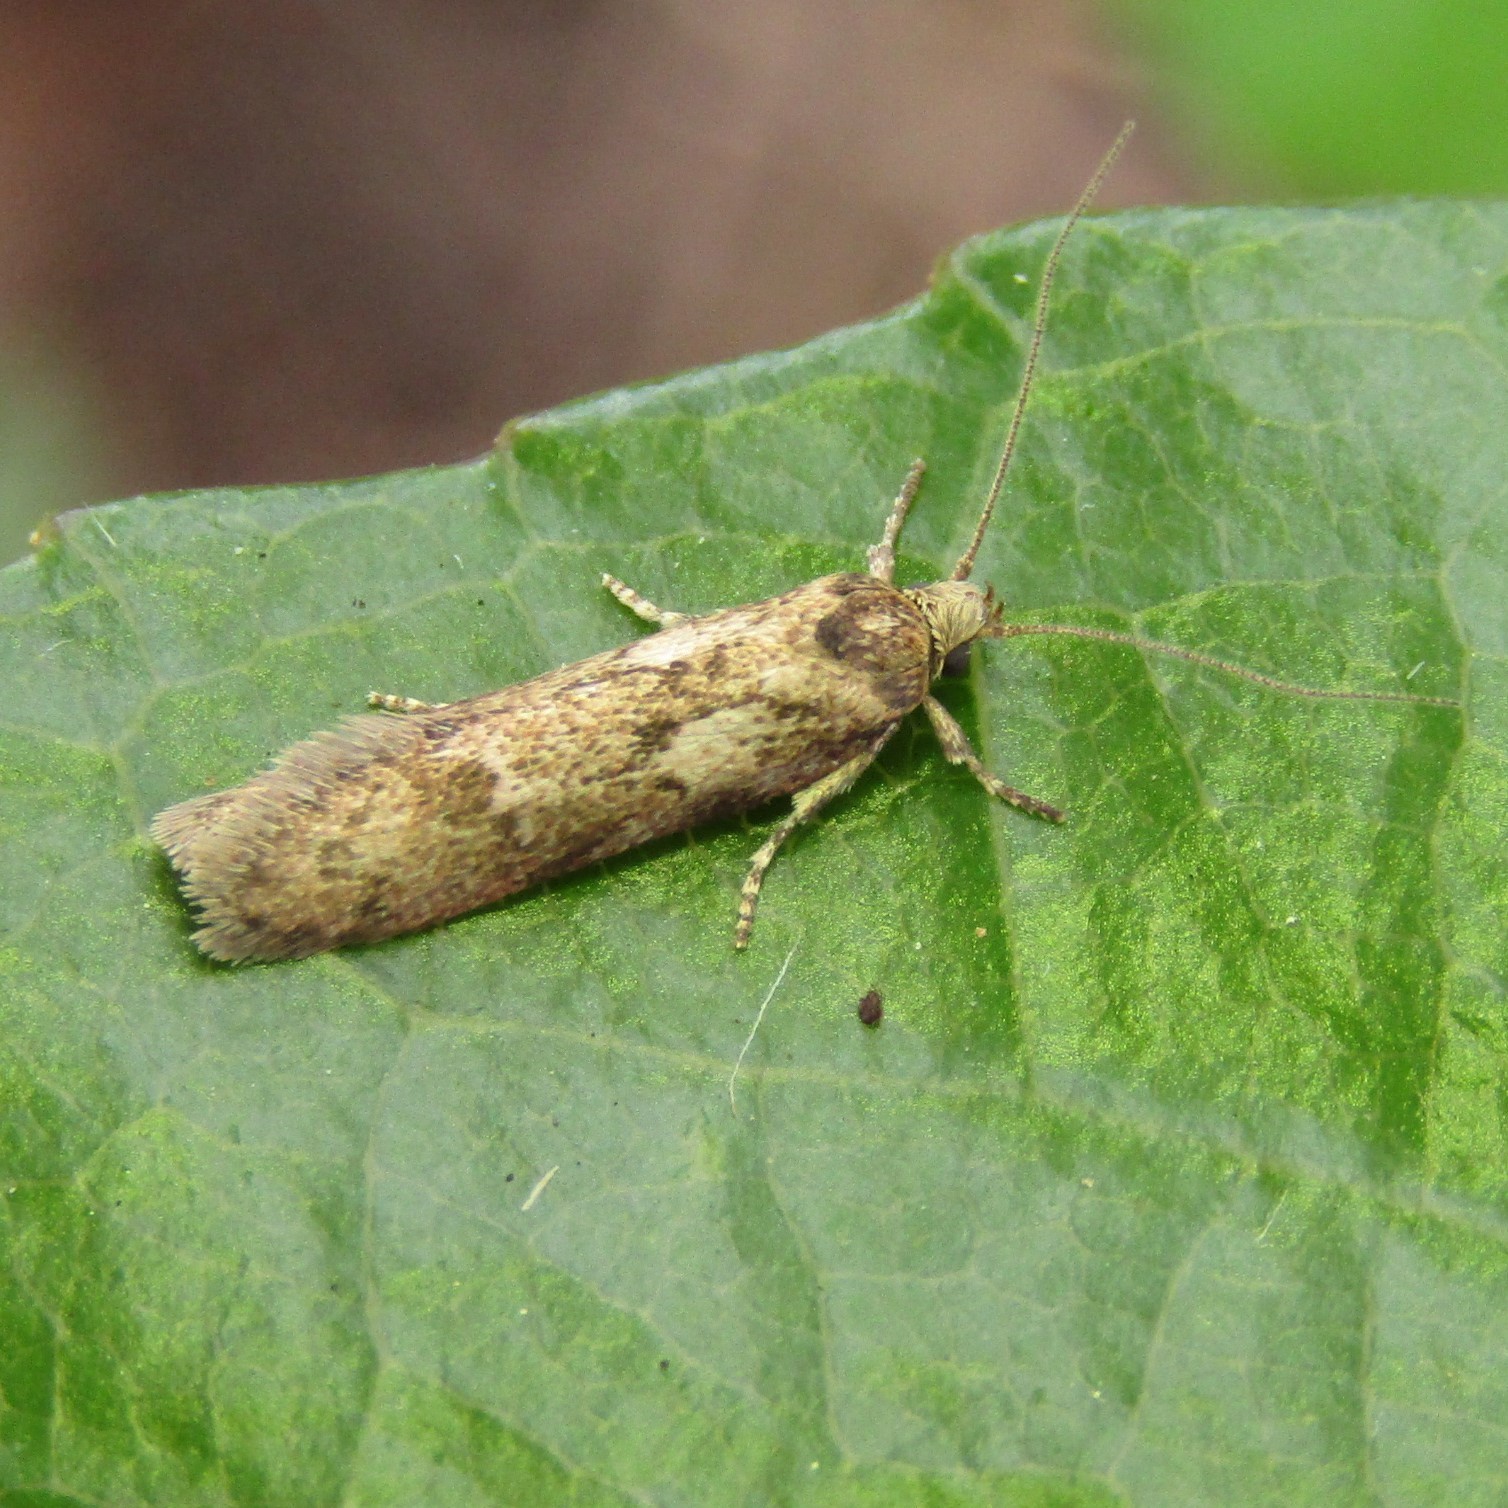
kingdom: Animalia
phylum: Arthropoda
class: Insecta
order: Lepidoptera
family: Oecophoridae
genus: Chersadaula
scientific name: Chersadaula ochrogastra
